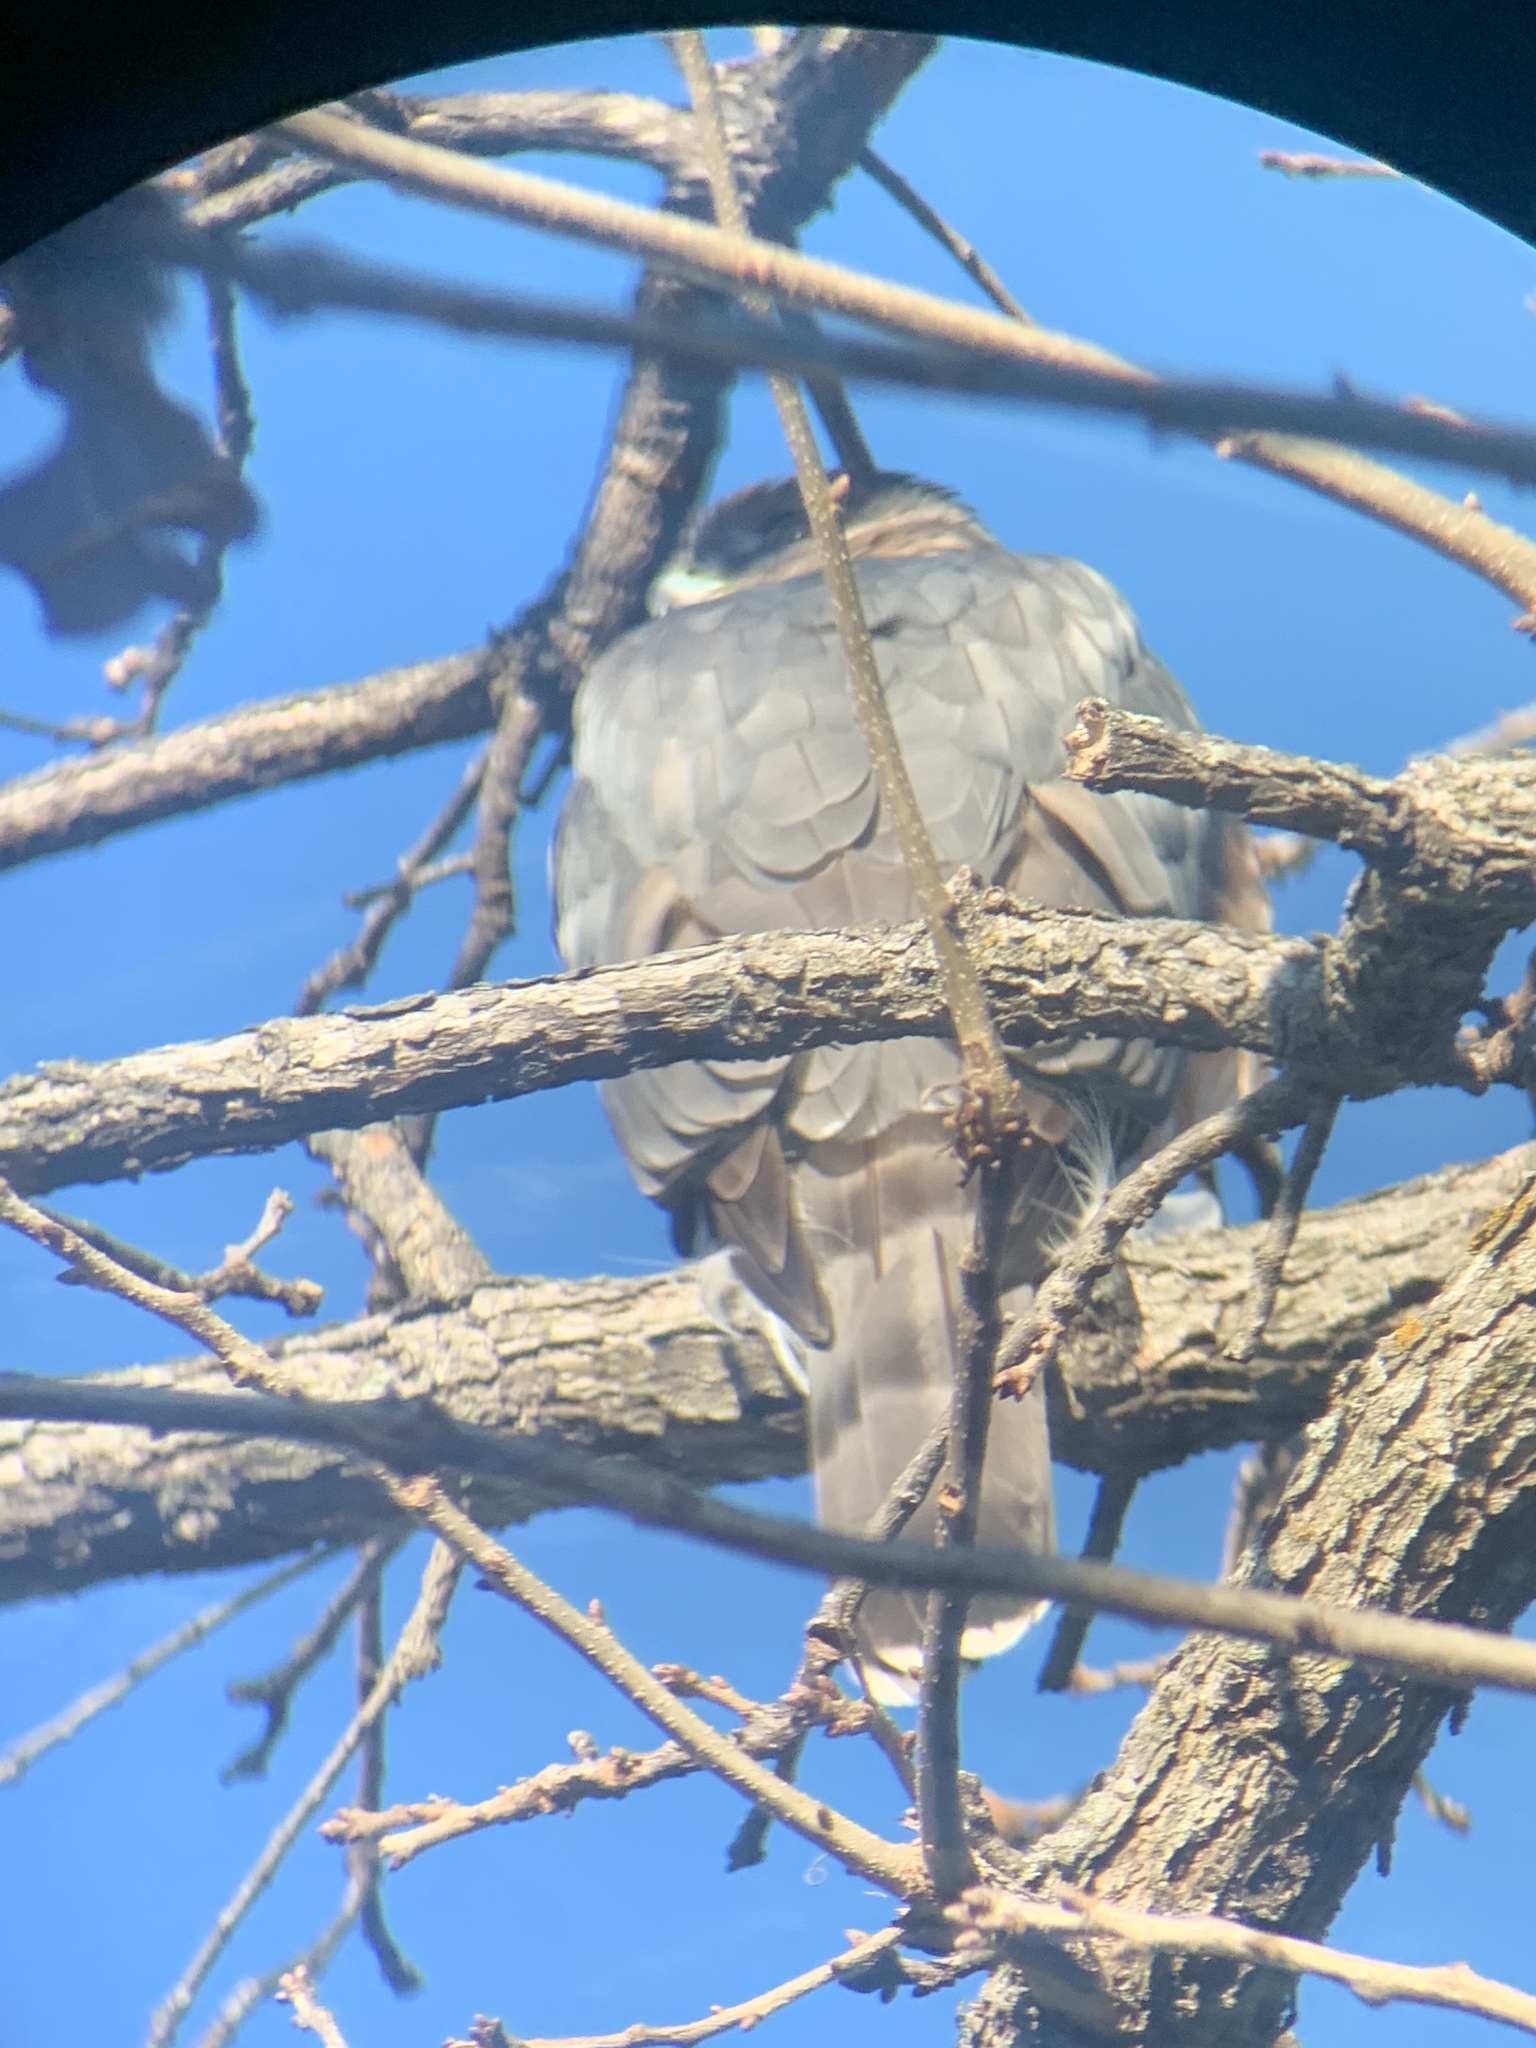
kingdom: Animalia
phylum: Chordata
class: Aves
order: Accipitriformes
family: Accipitridae
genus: Accipiter
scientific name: Accipiter cooperii
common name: Cooper's hawk
